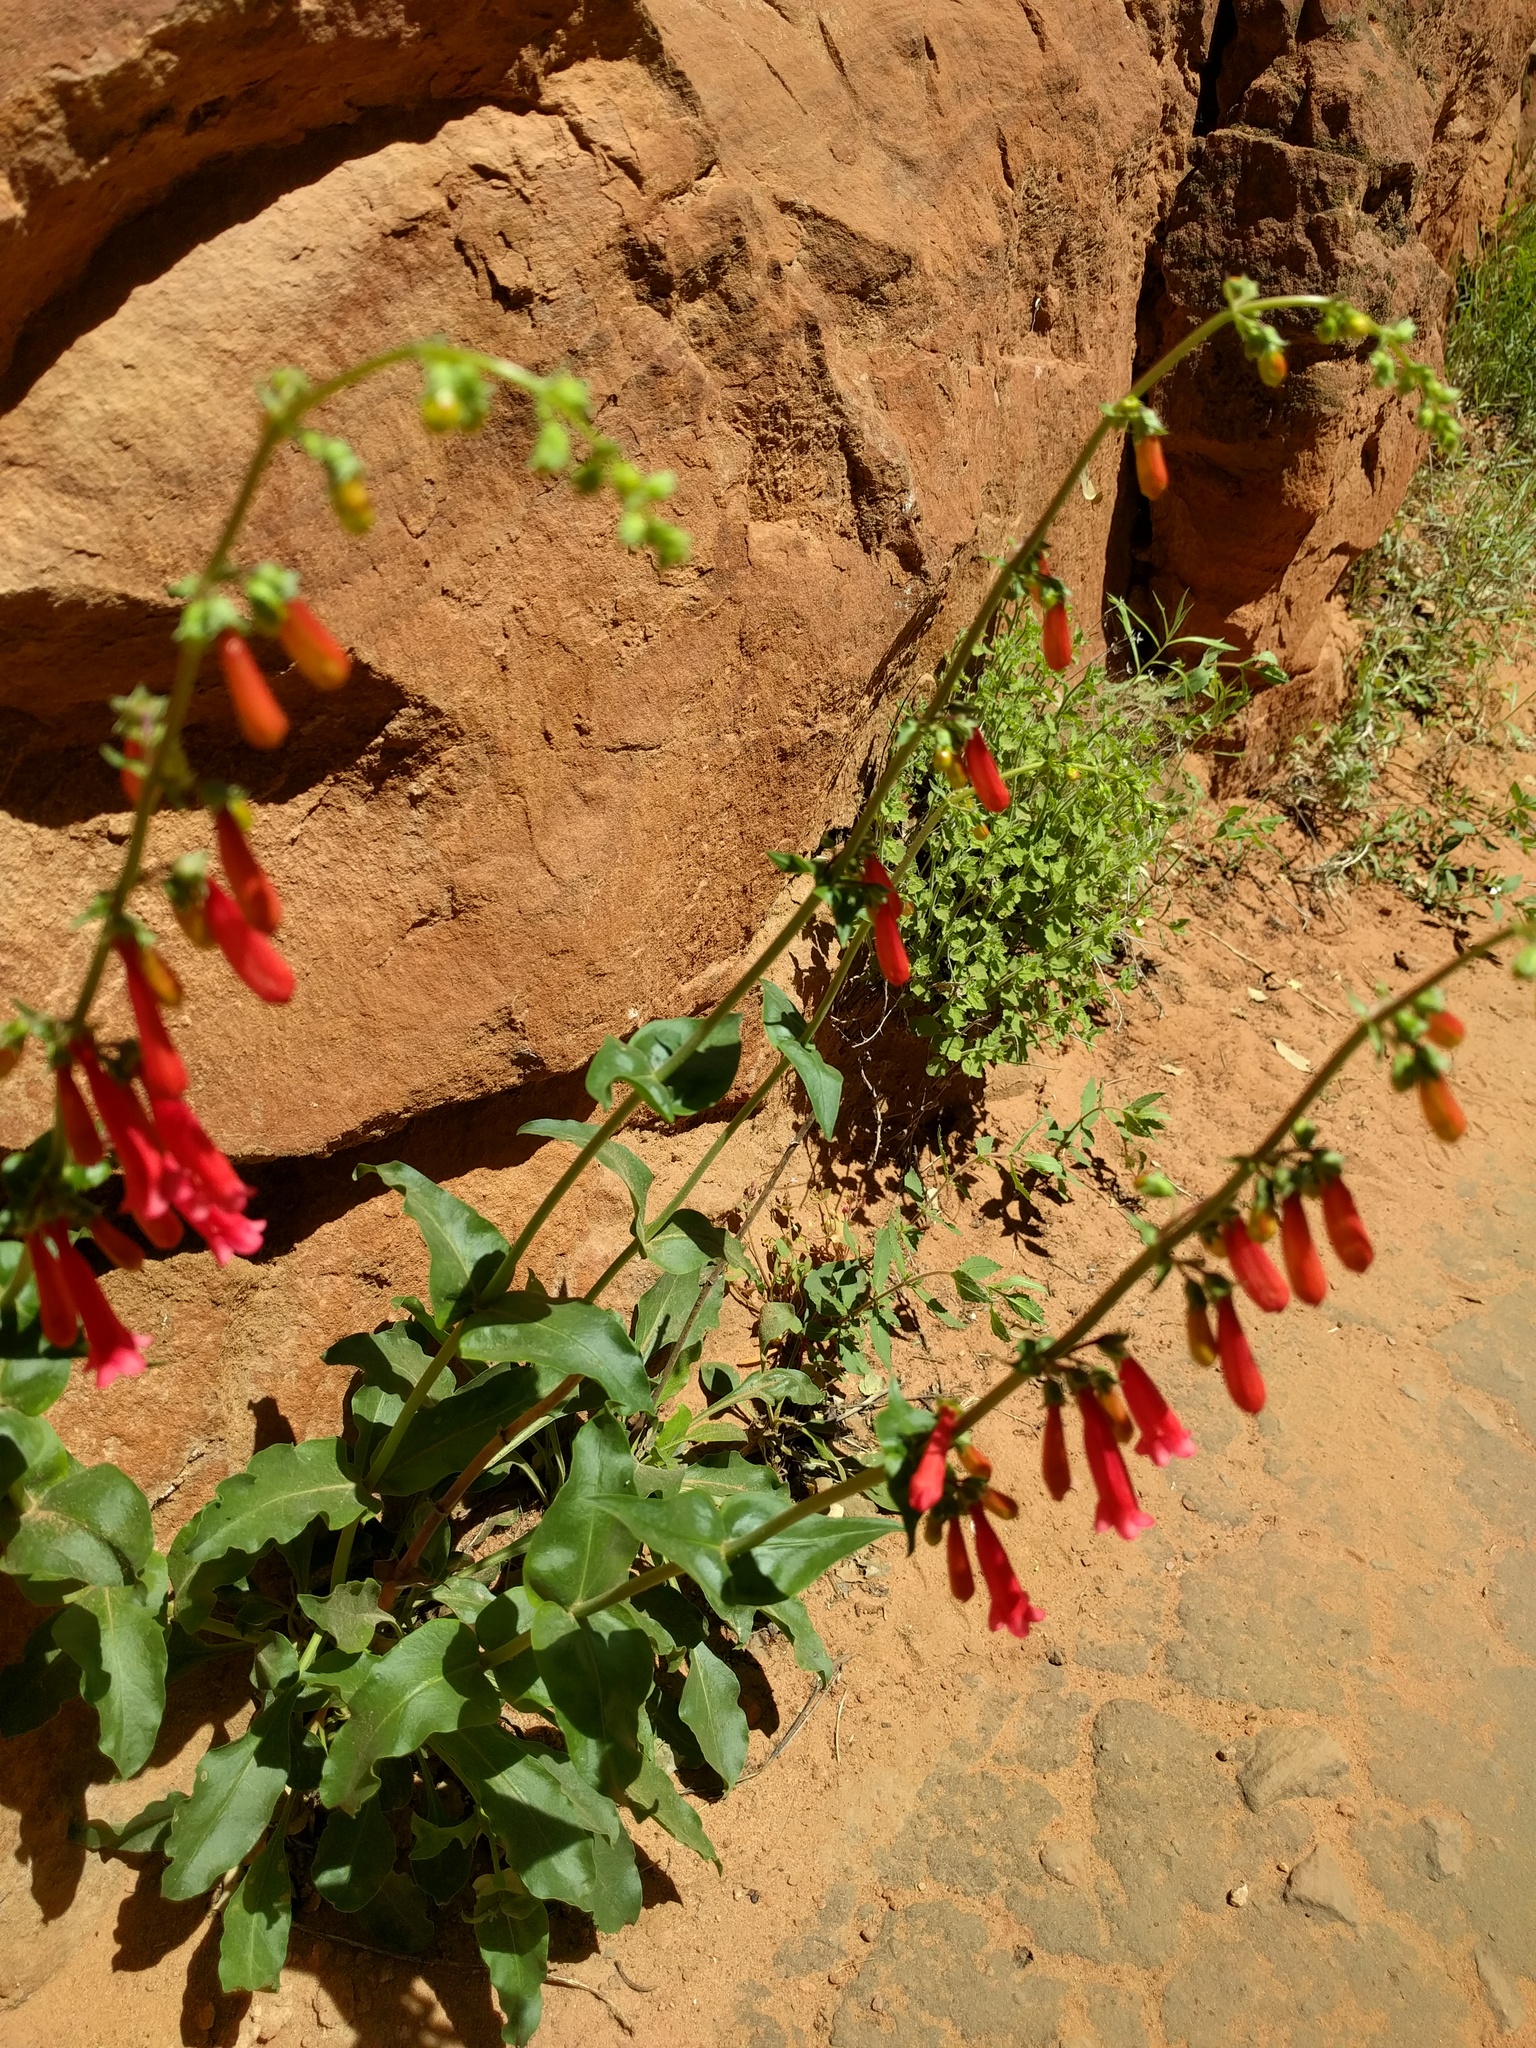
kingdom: Plantae
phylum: Tracheophyta
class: Magnoliopsida
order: Lamiales
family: Plantaginaceae
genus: Penstemon
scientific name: Penstemon eatonii
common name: Eaton's penstemon
